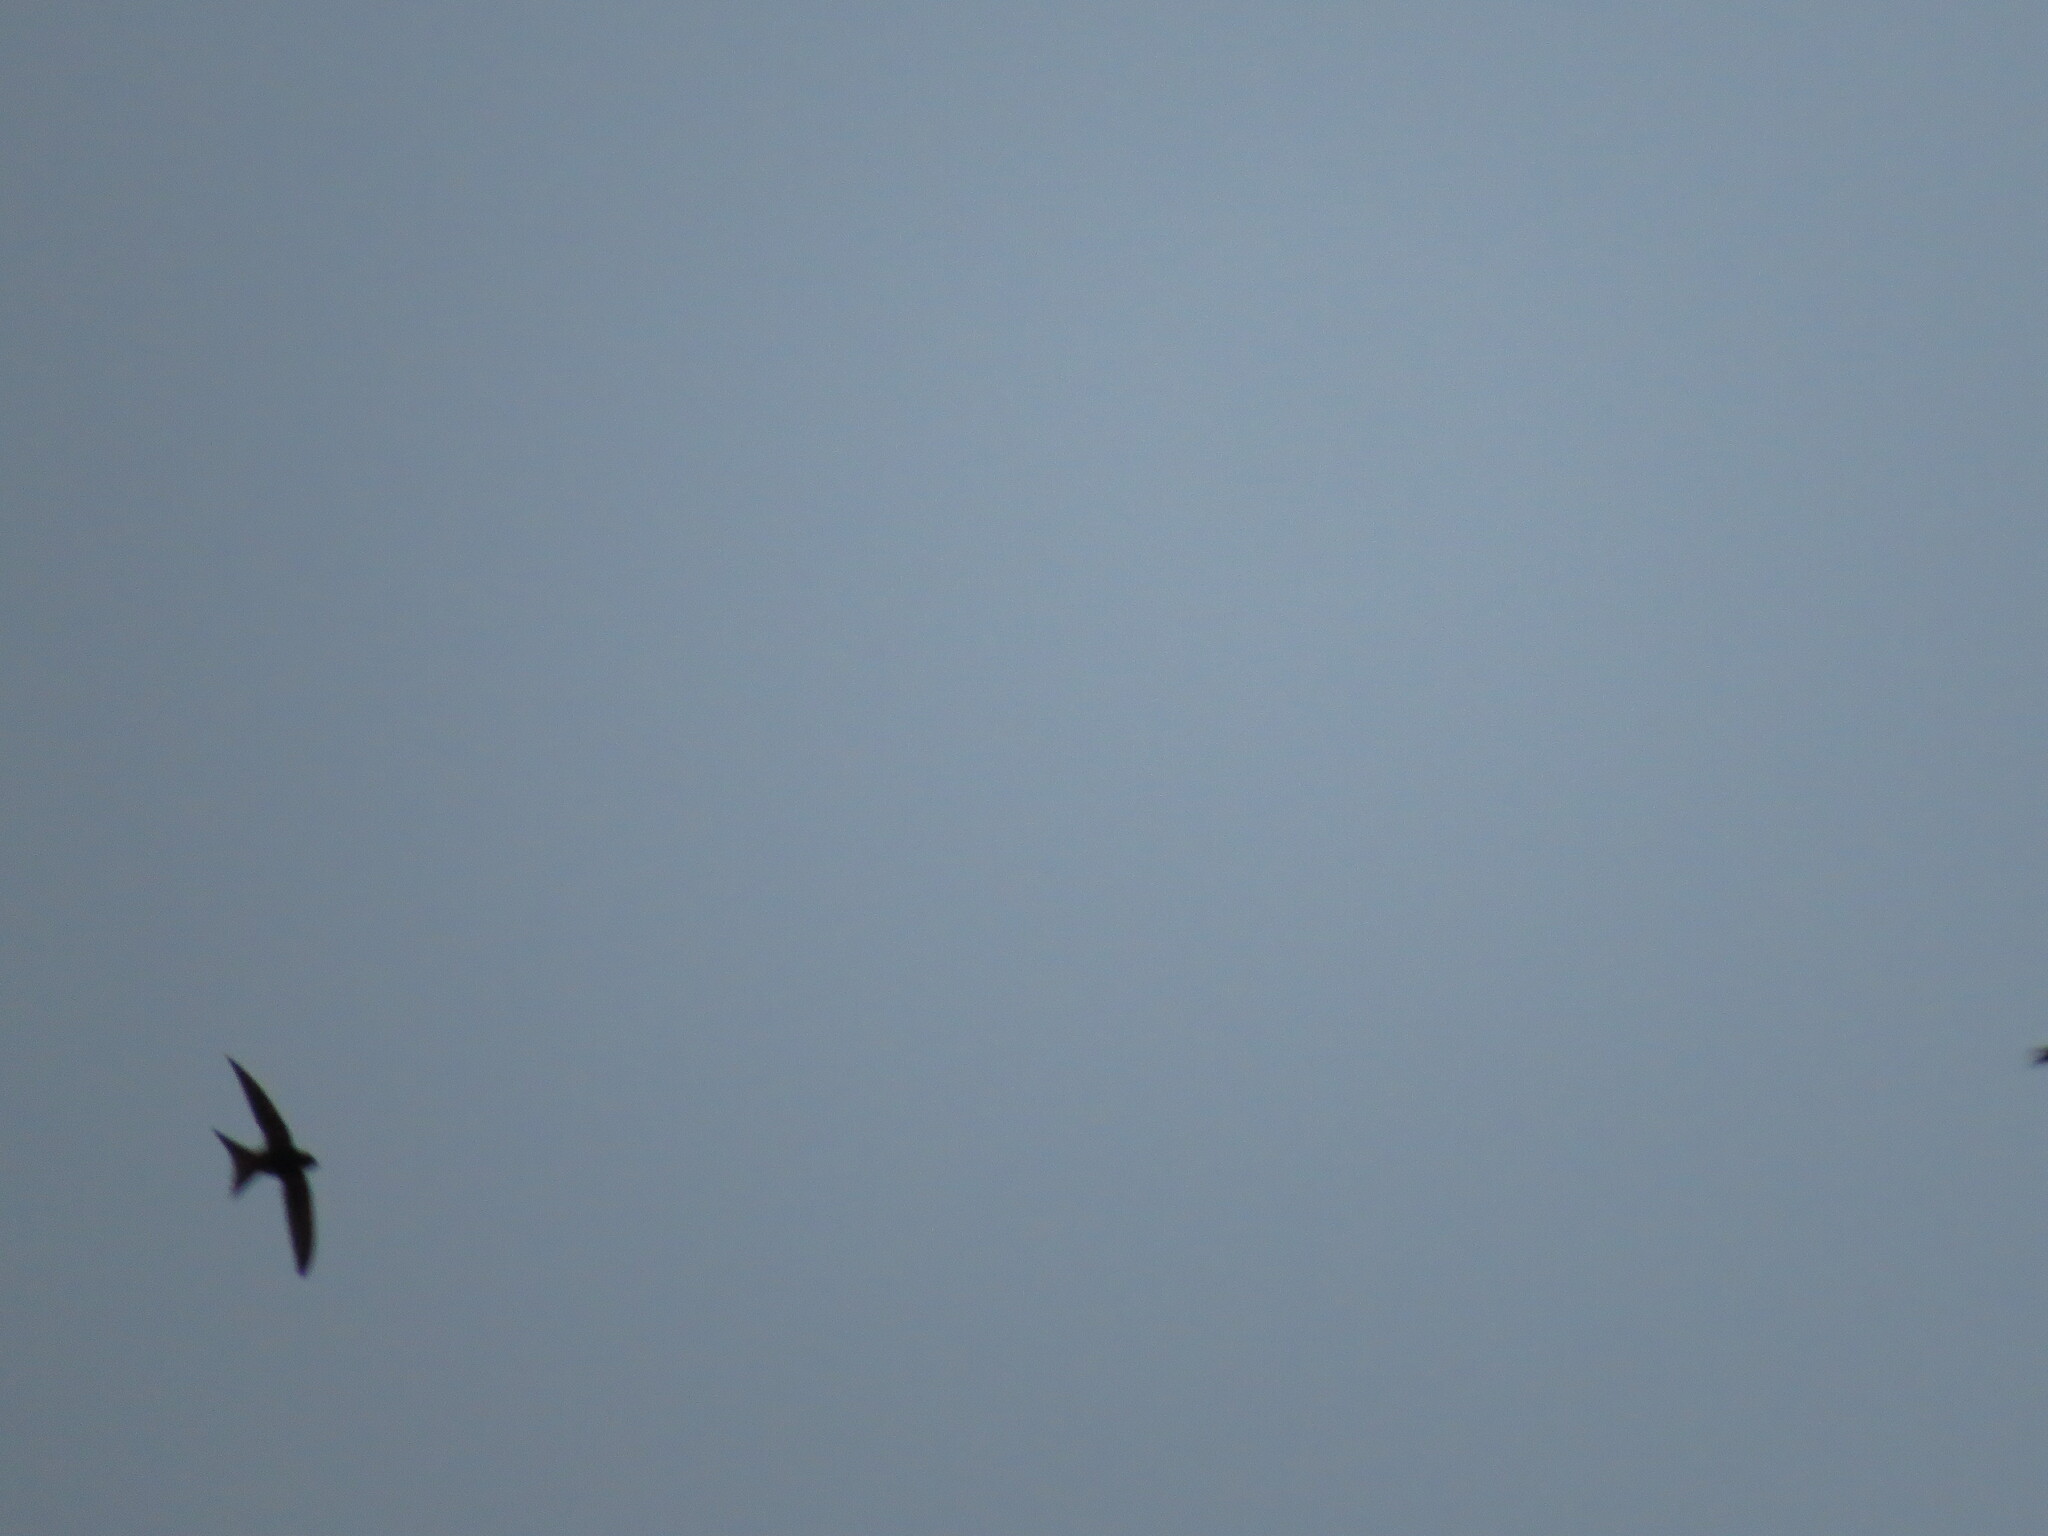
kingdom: Animalia
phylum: Chordata
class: Aves
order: Apodiformes
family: Apodidae
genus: Apus
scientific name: Apus apus
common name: Common swift
